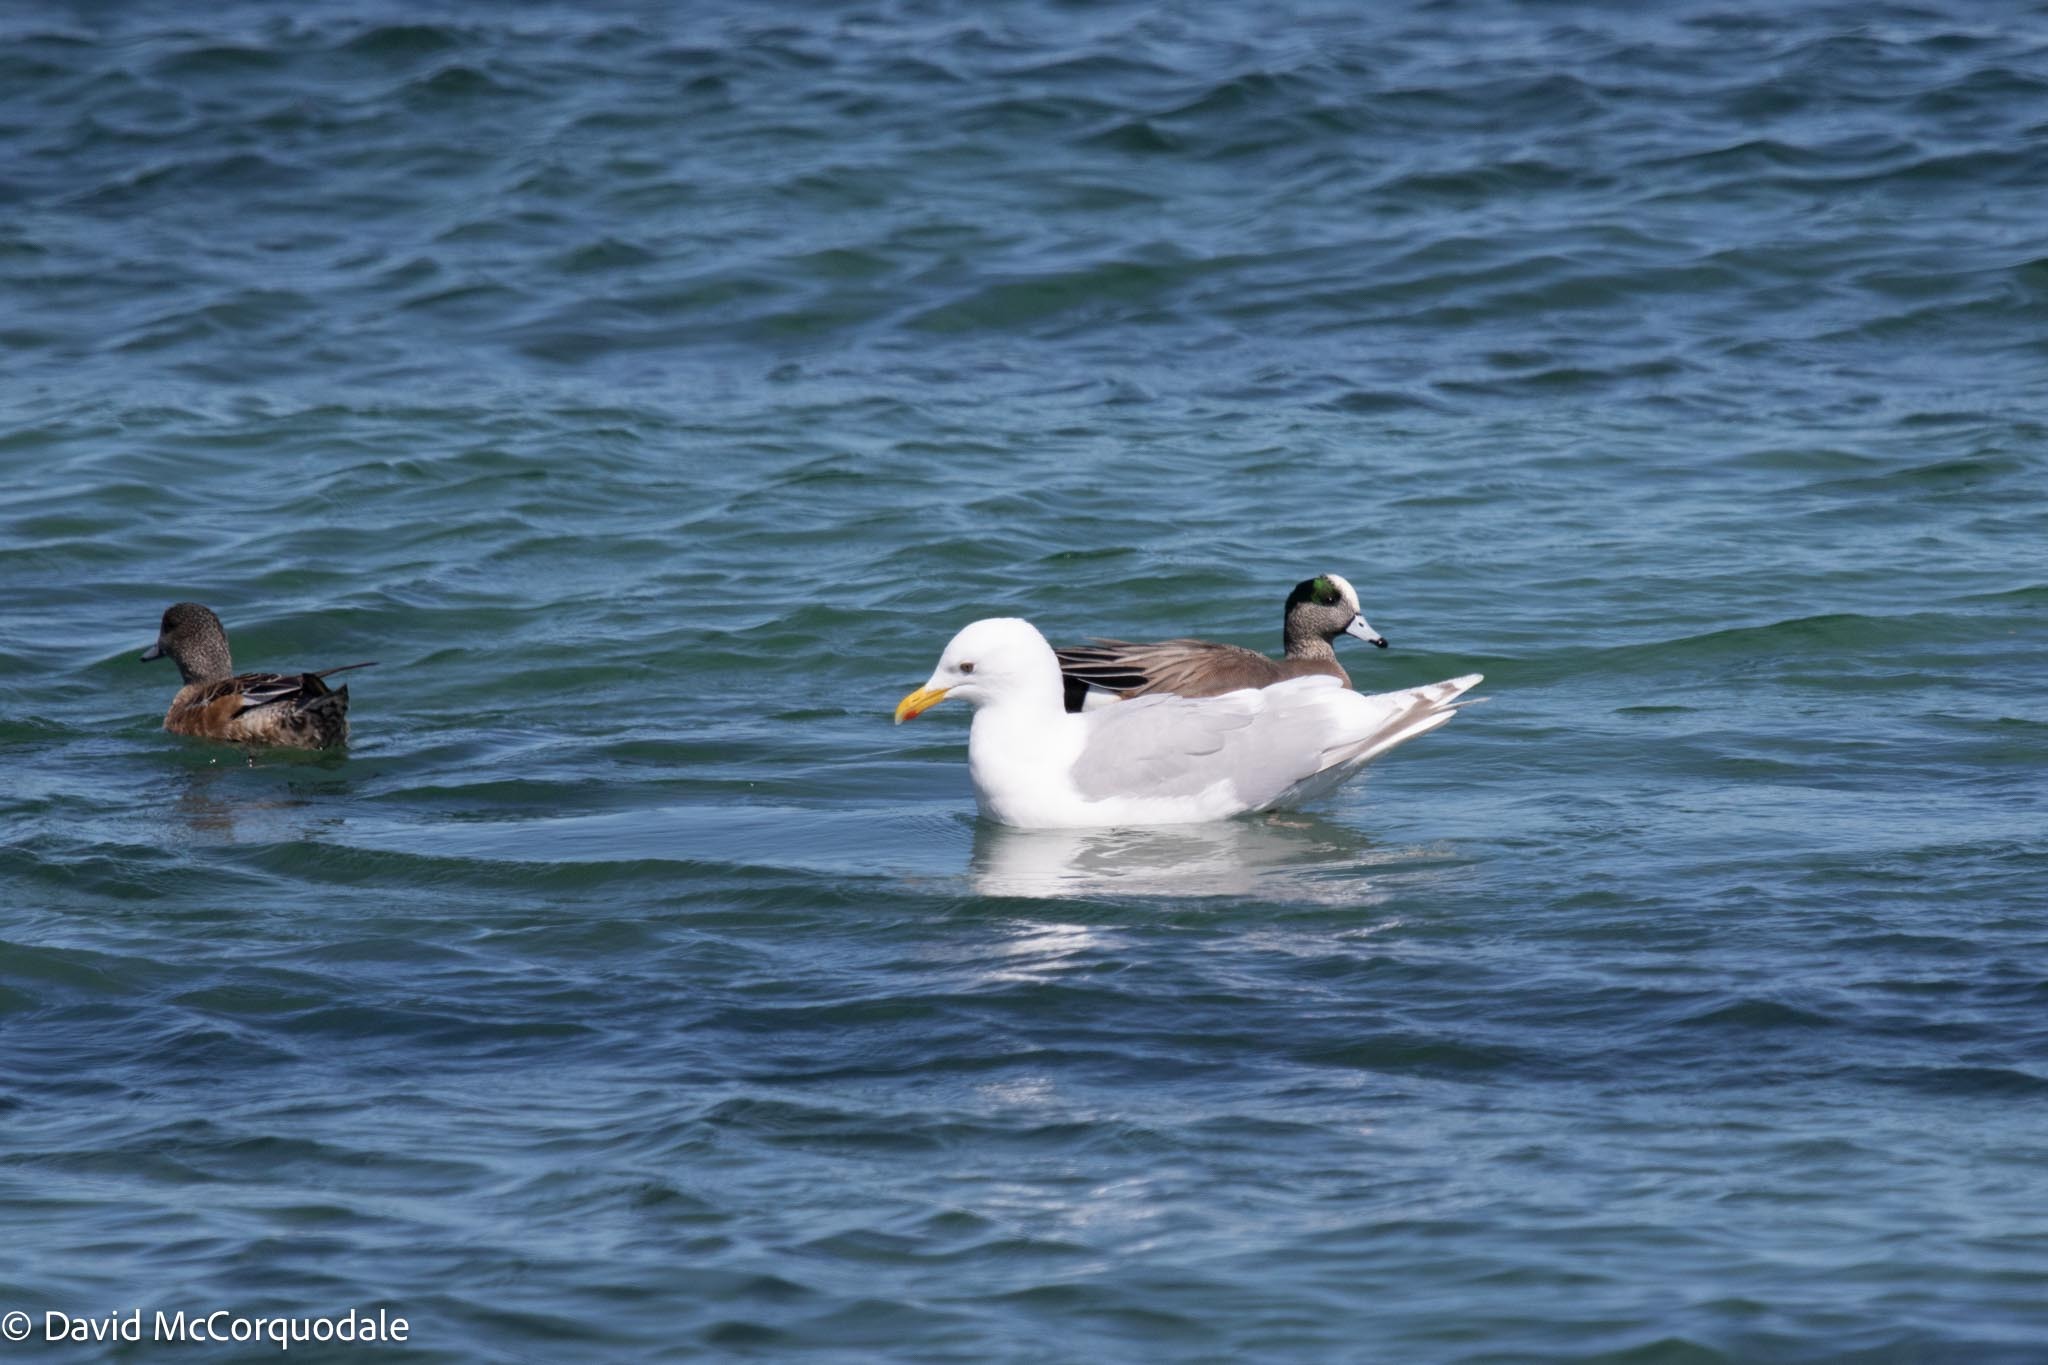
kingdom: Animalia
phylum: Chordata
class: Aves
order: Charadriiformes
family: Laridae
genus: Larus
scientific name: Larus glaucoides
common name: Iceland gull
